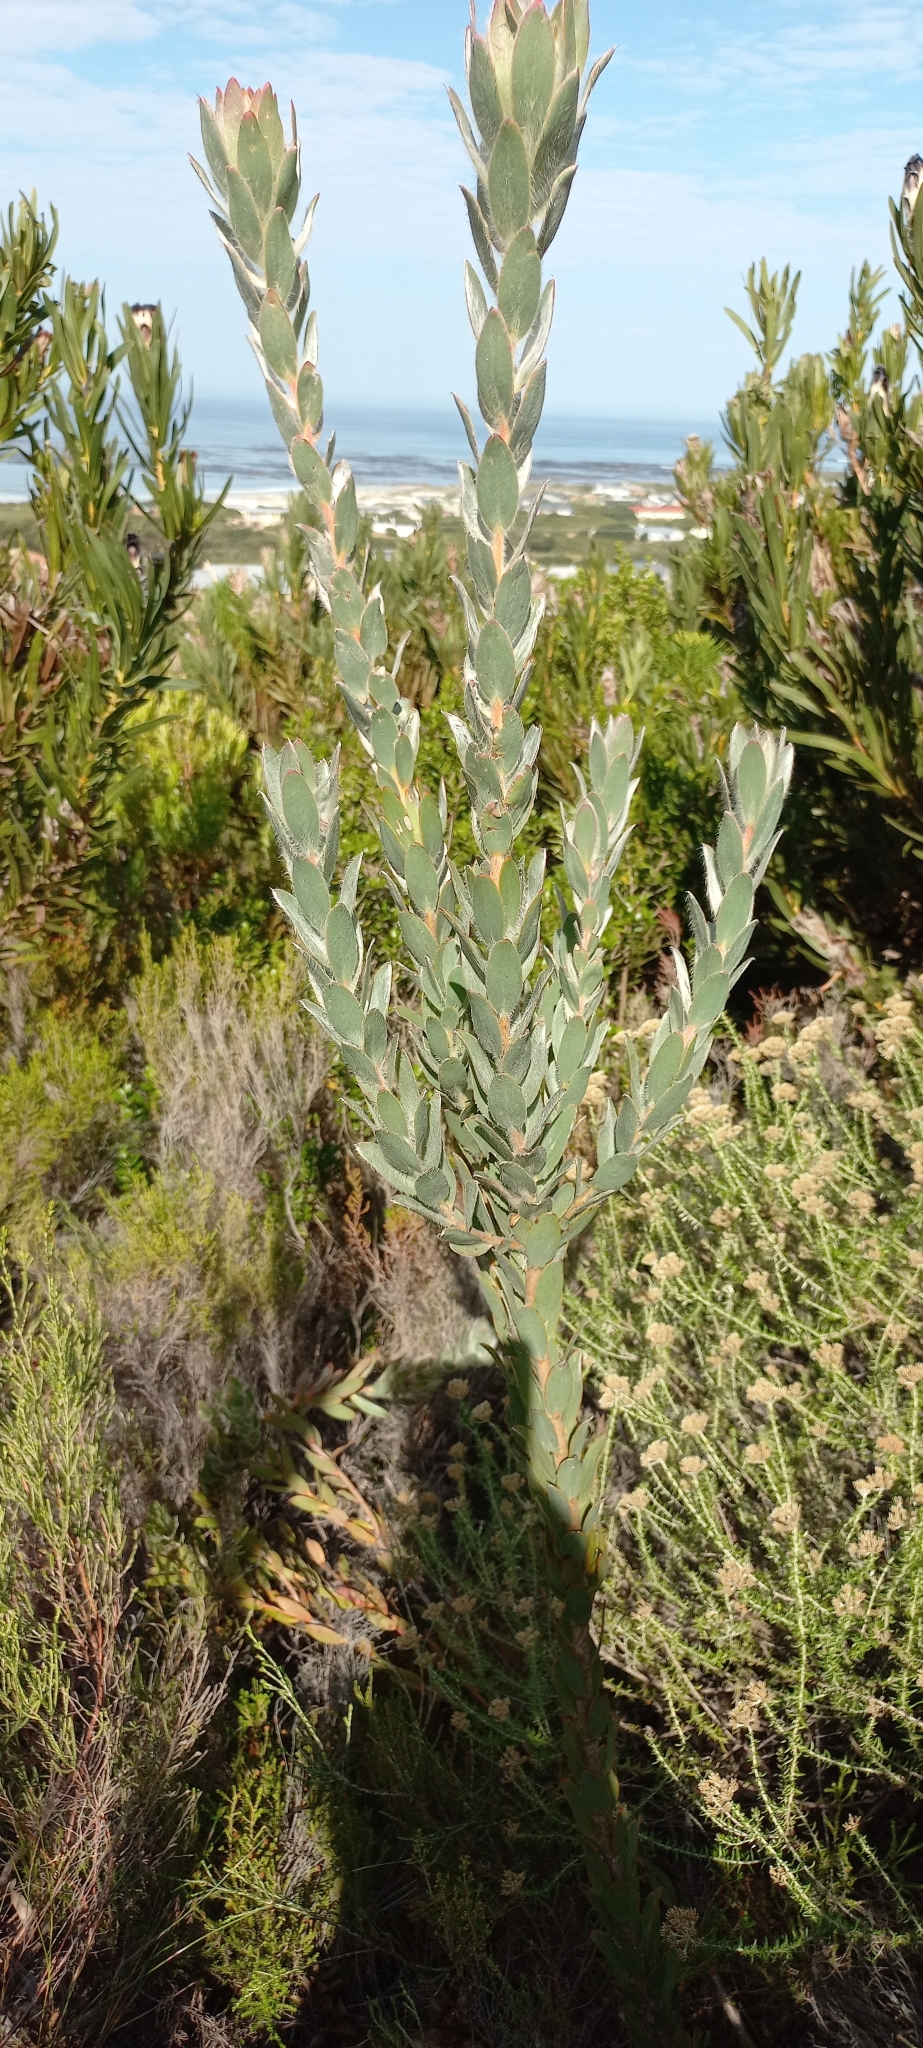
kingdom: Plantae
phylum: Tracheophyta
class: Magnoliopsida
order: Proteales
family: Proteaceae
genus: Leucadendron
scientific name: Leucadendron nervosum
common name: Silky-ruff conebush
